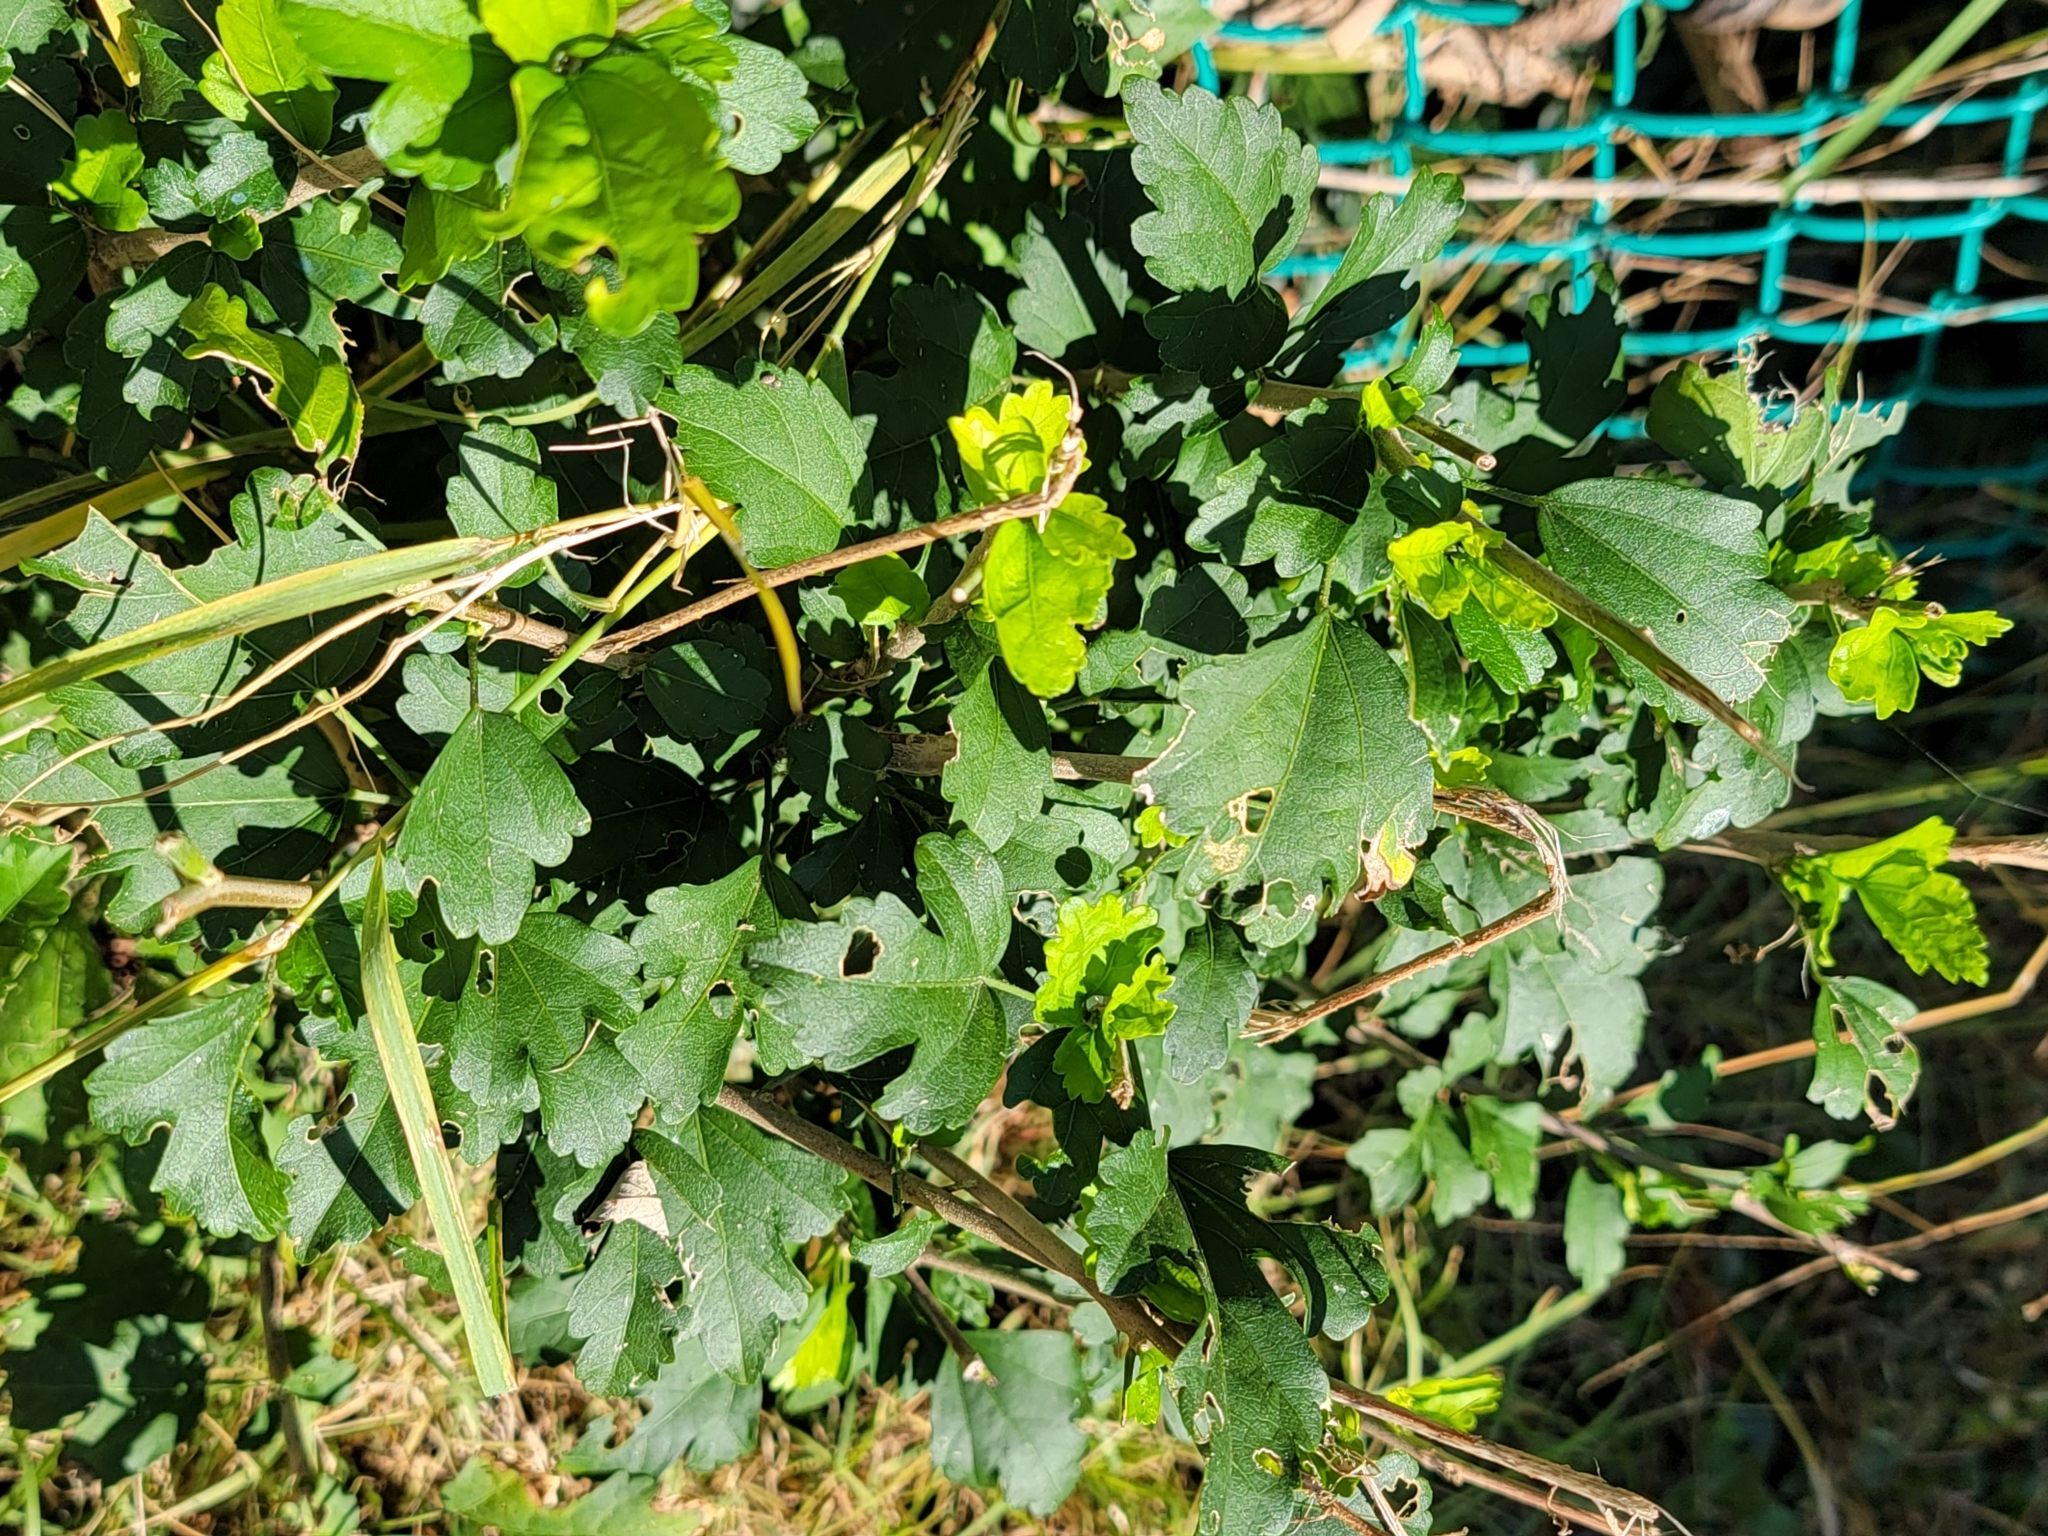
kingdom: Plantae
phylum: Tracheophyta
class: Magnoliopsida
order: Malvales
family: Malvaceae
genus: Hibiscus
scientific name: Hibiscus syriacus
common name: Syrian ketmia
